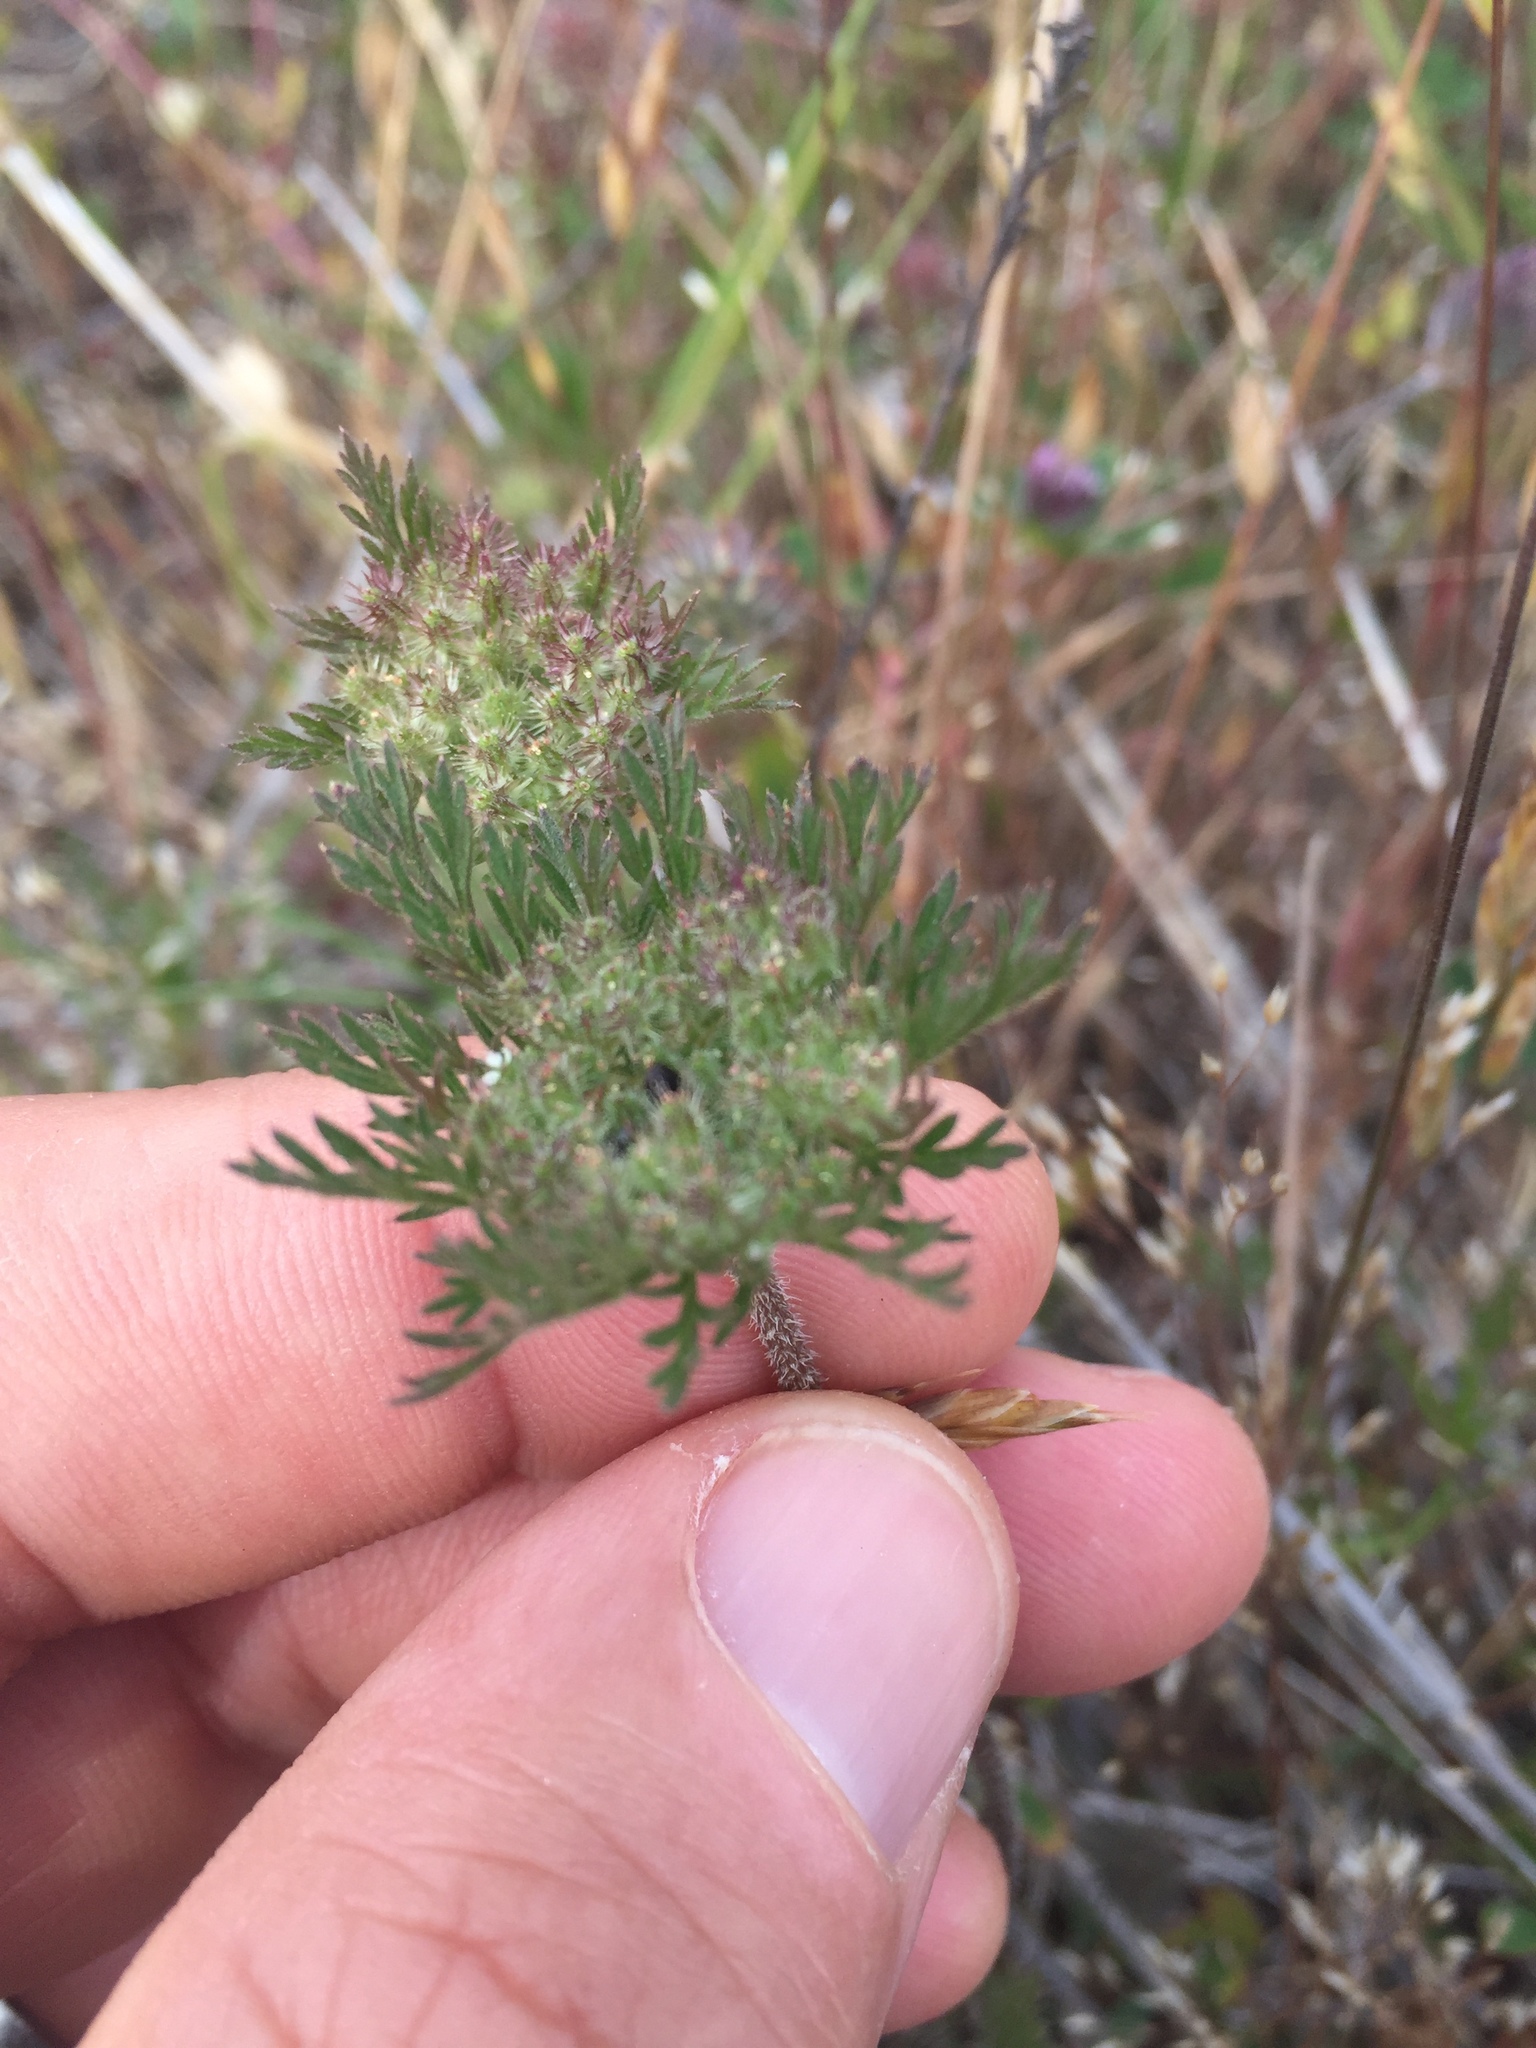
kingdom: Plantae
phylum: Tracheophyta
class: Magnoliopsida
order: Apiales
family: Apiaceae
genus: Daucus
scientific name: Daucus pusillus
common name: Southwest wild carrot
